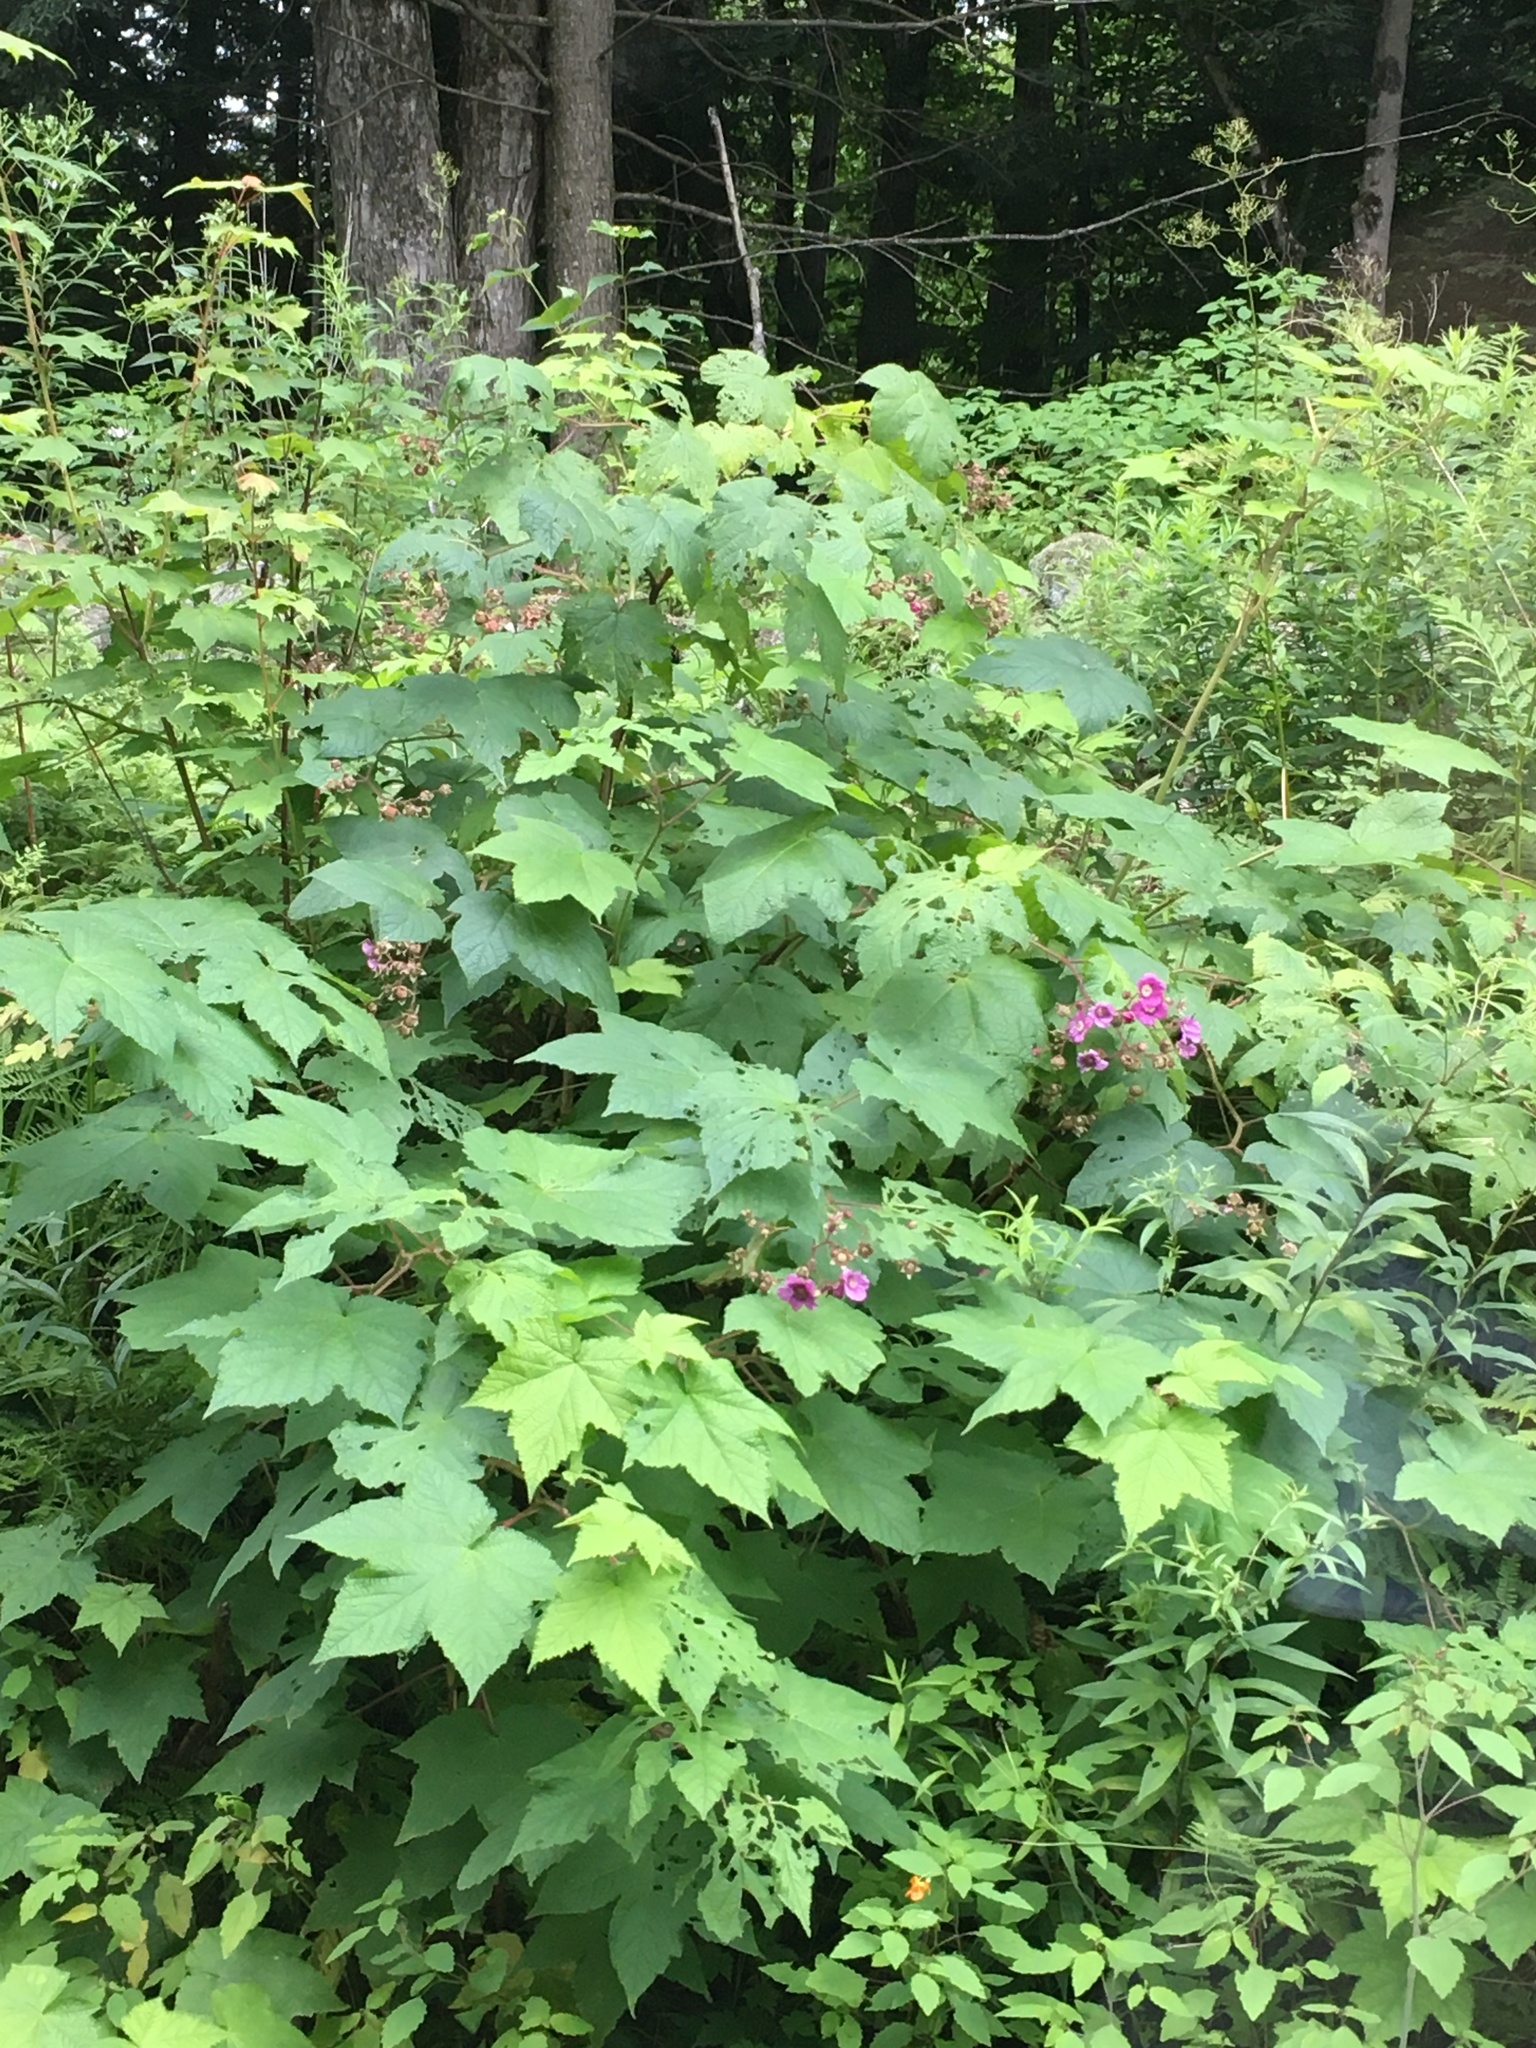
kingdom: Plantae
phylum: Tracheophyta
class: Magnoliopsida
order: Rosales
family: Rosaceae
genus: Rubus
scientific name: Rubus odoratus
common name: Purple-flowered raspberry
